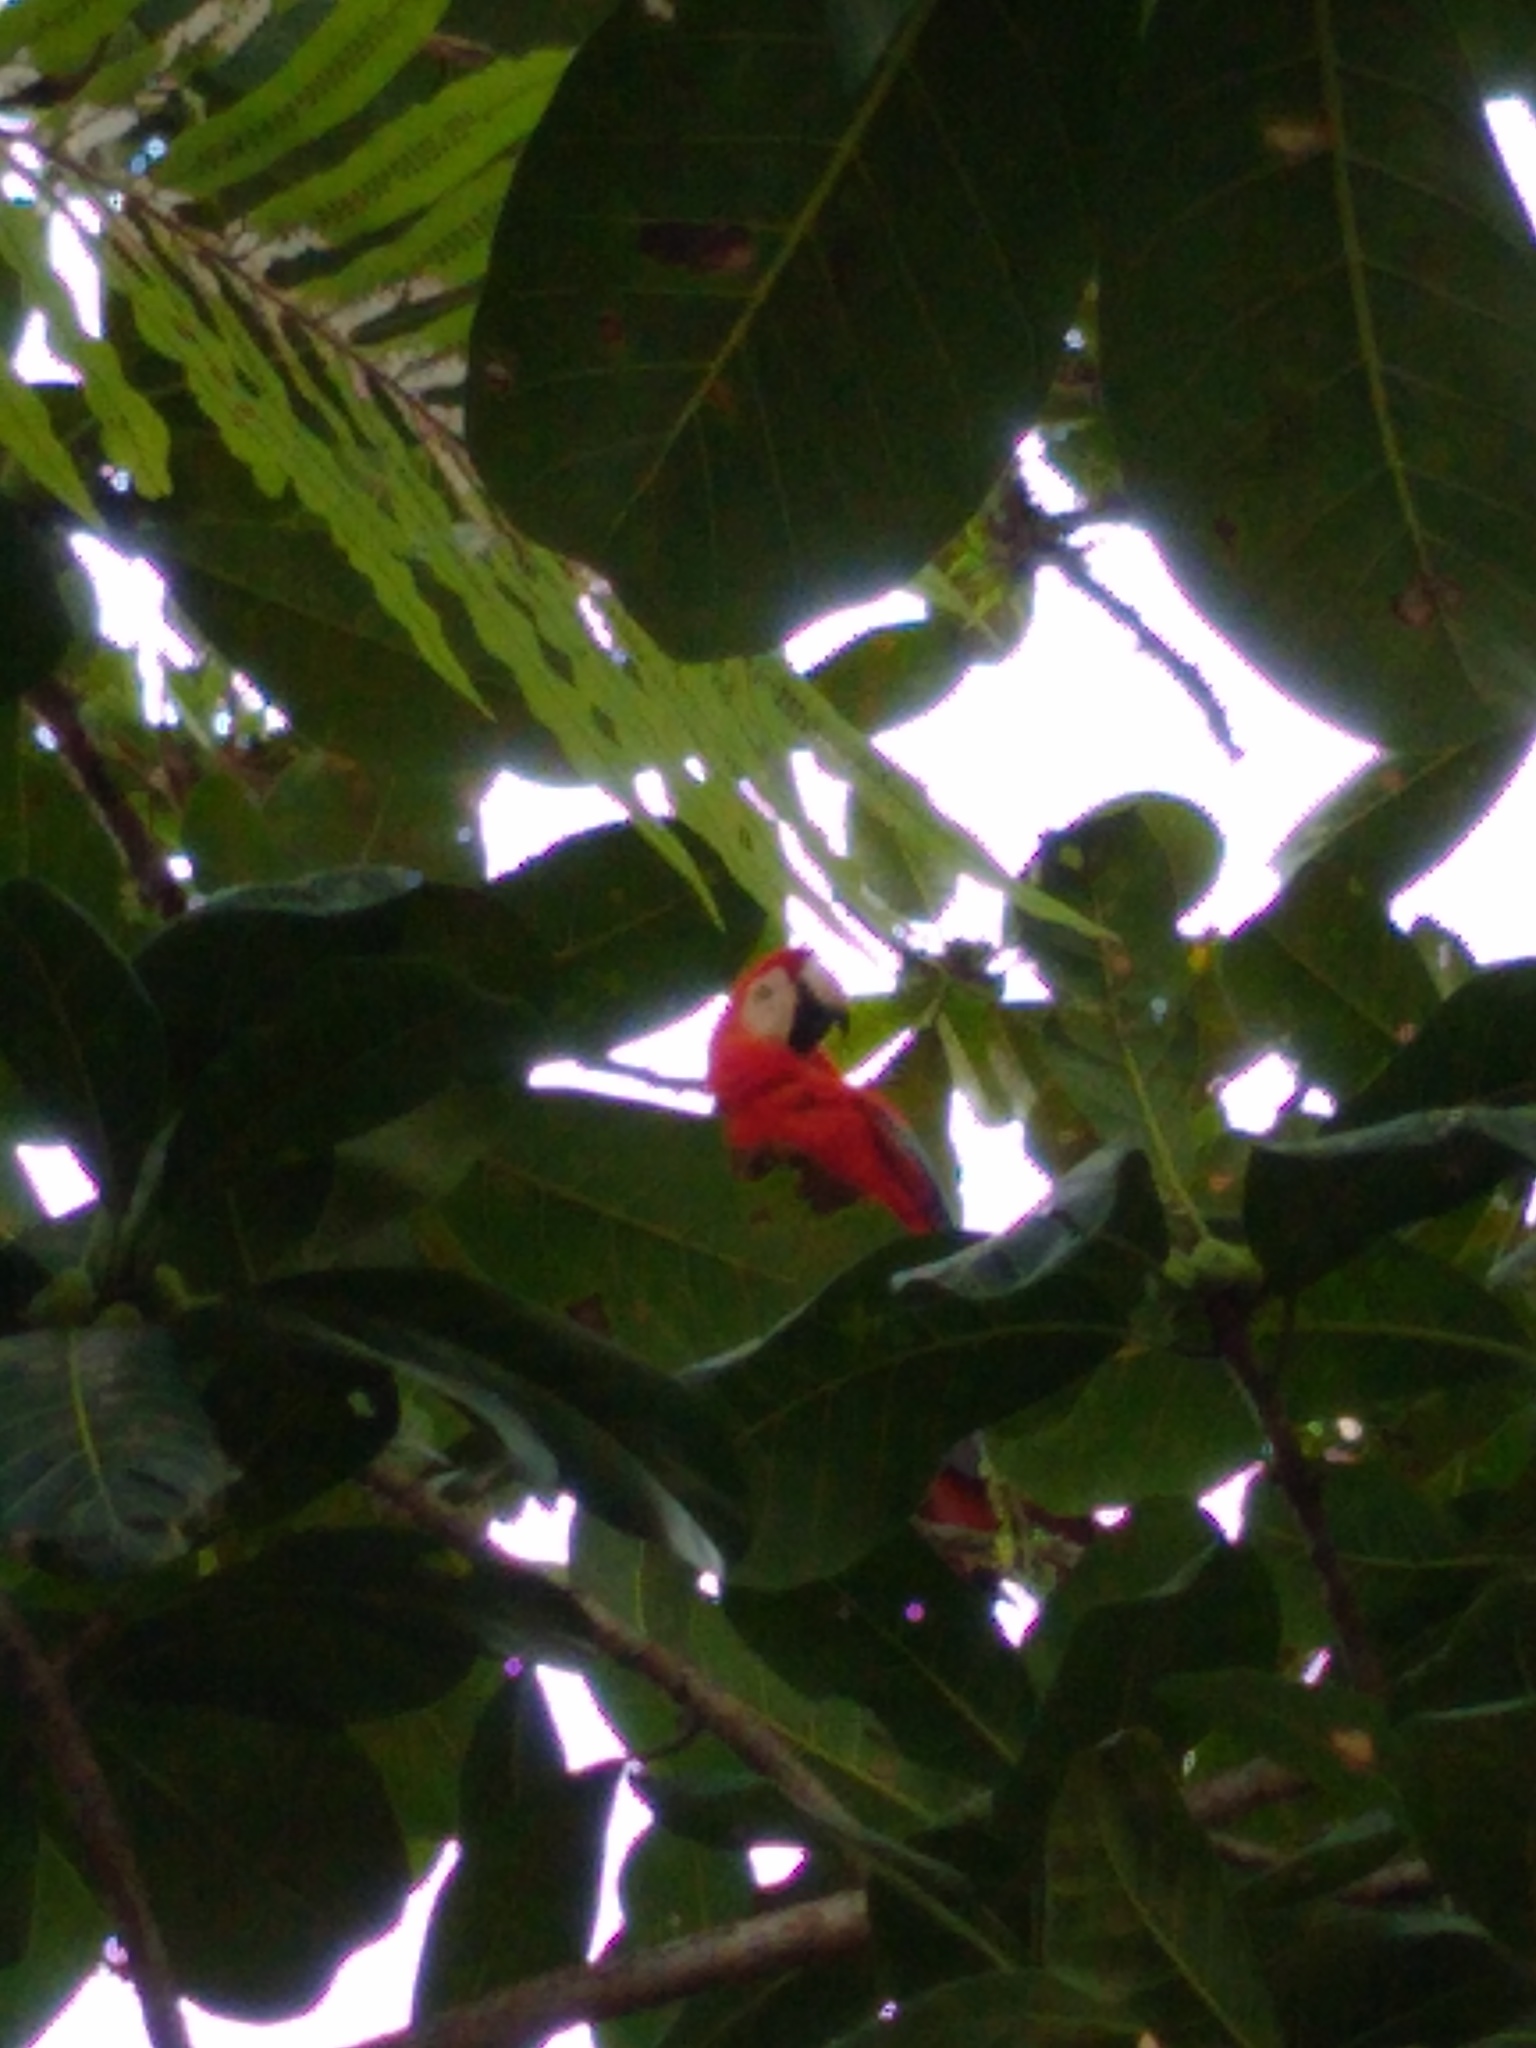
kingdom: Animalia
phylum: Chordata
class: Aves
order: Psittaciformes
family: Psittacidae
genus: Ara
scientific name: Ara macao
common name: Scarlet macaw
